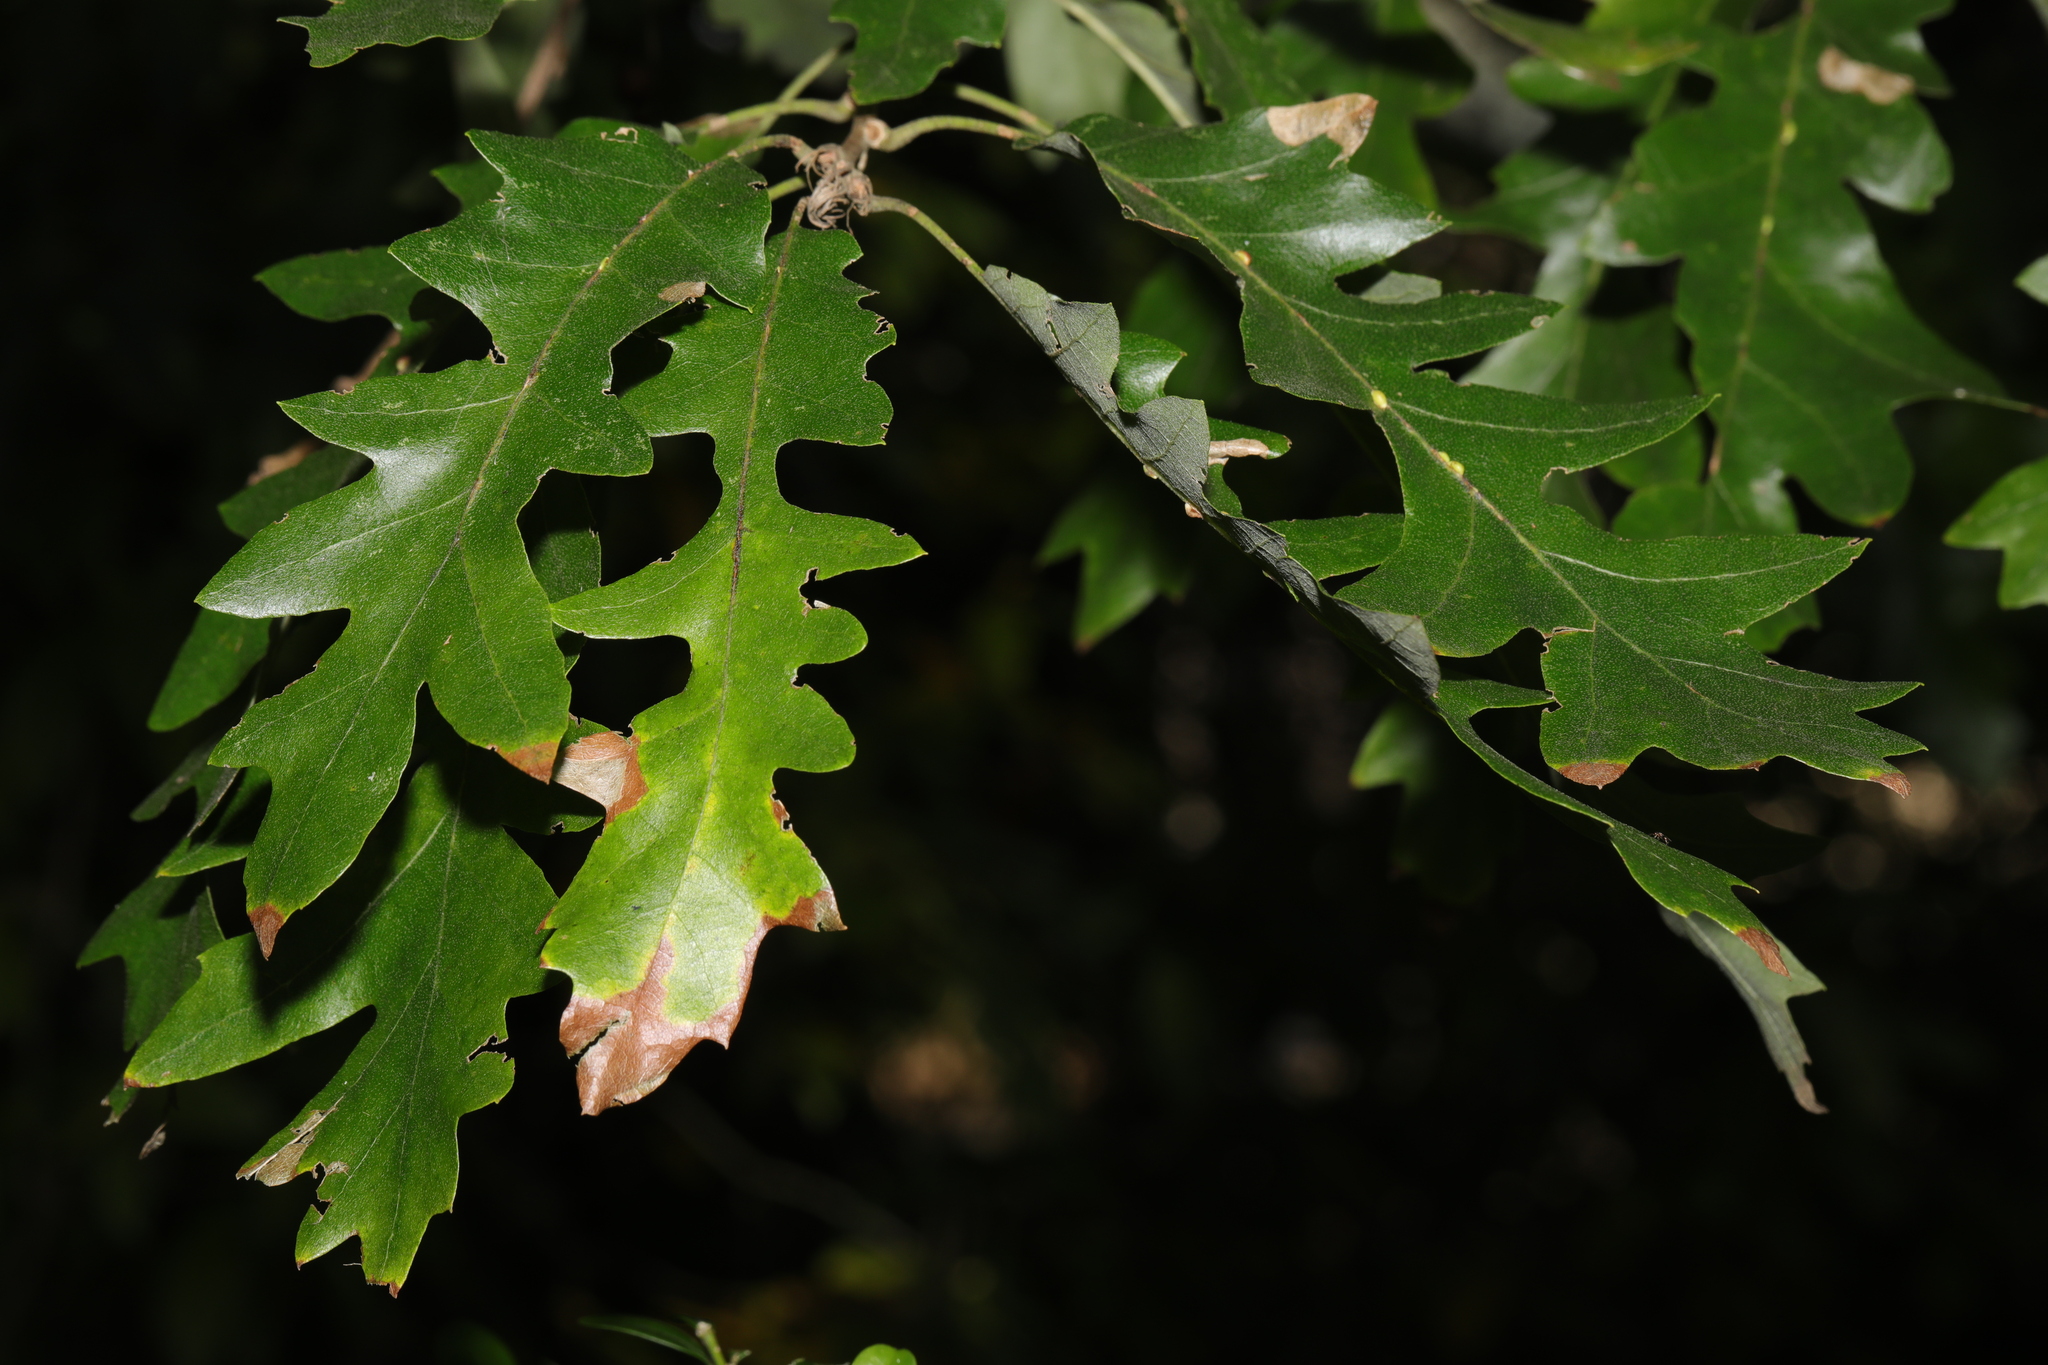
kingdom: Plantae
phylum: Tracheophyta
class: Magnoliopsida
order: Fagales
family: Fagaceae
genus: Quercus
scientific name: Quercus cerris
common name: Turkey oak
